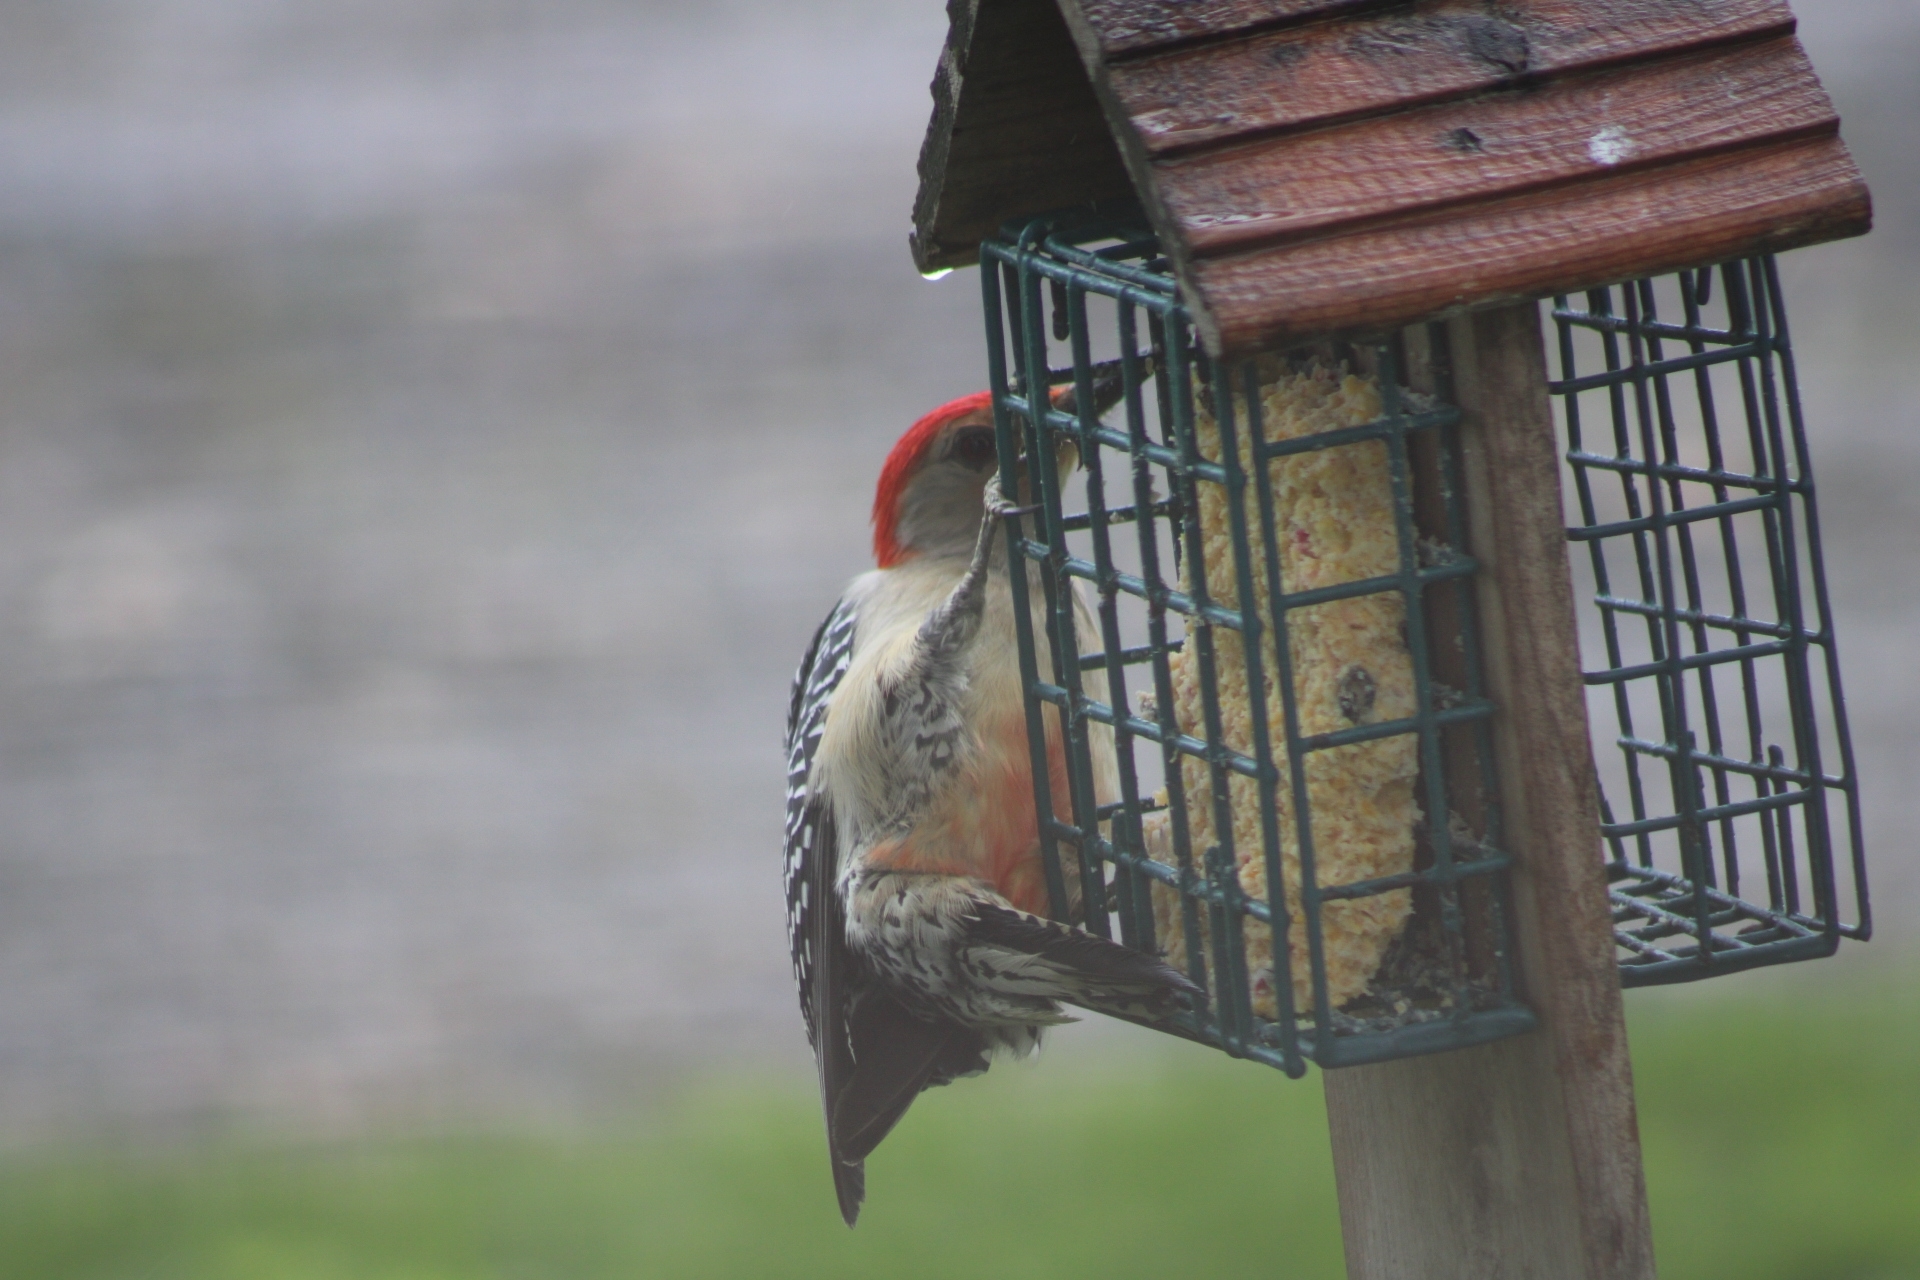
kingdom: Animalia
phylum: Chordata
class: Aves
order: Piciformes
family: Picidae
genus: Melanerpes
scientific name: Melanerpes carolinus
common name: Red-bellied woodpecker
